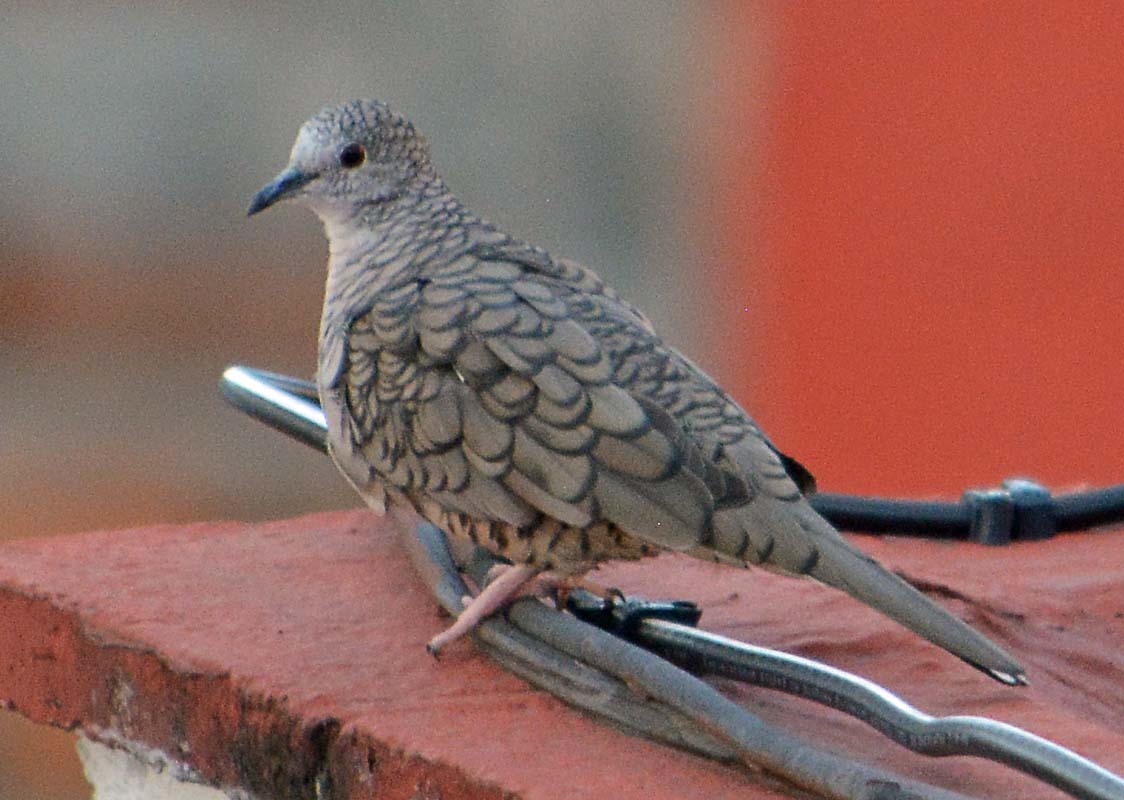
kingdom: Animalia
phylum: Chordata
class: Aves
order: Columbiformes
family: Columbidae
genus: Columbina
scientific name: Columbina inca
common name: Inca dove
